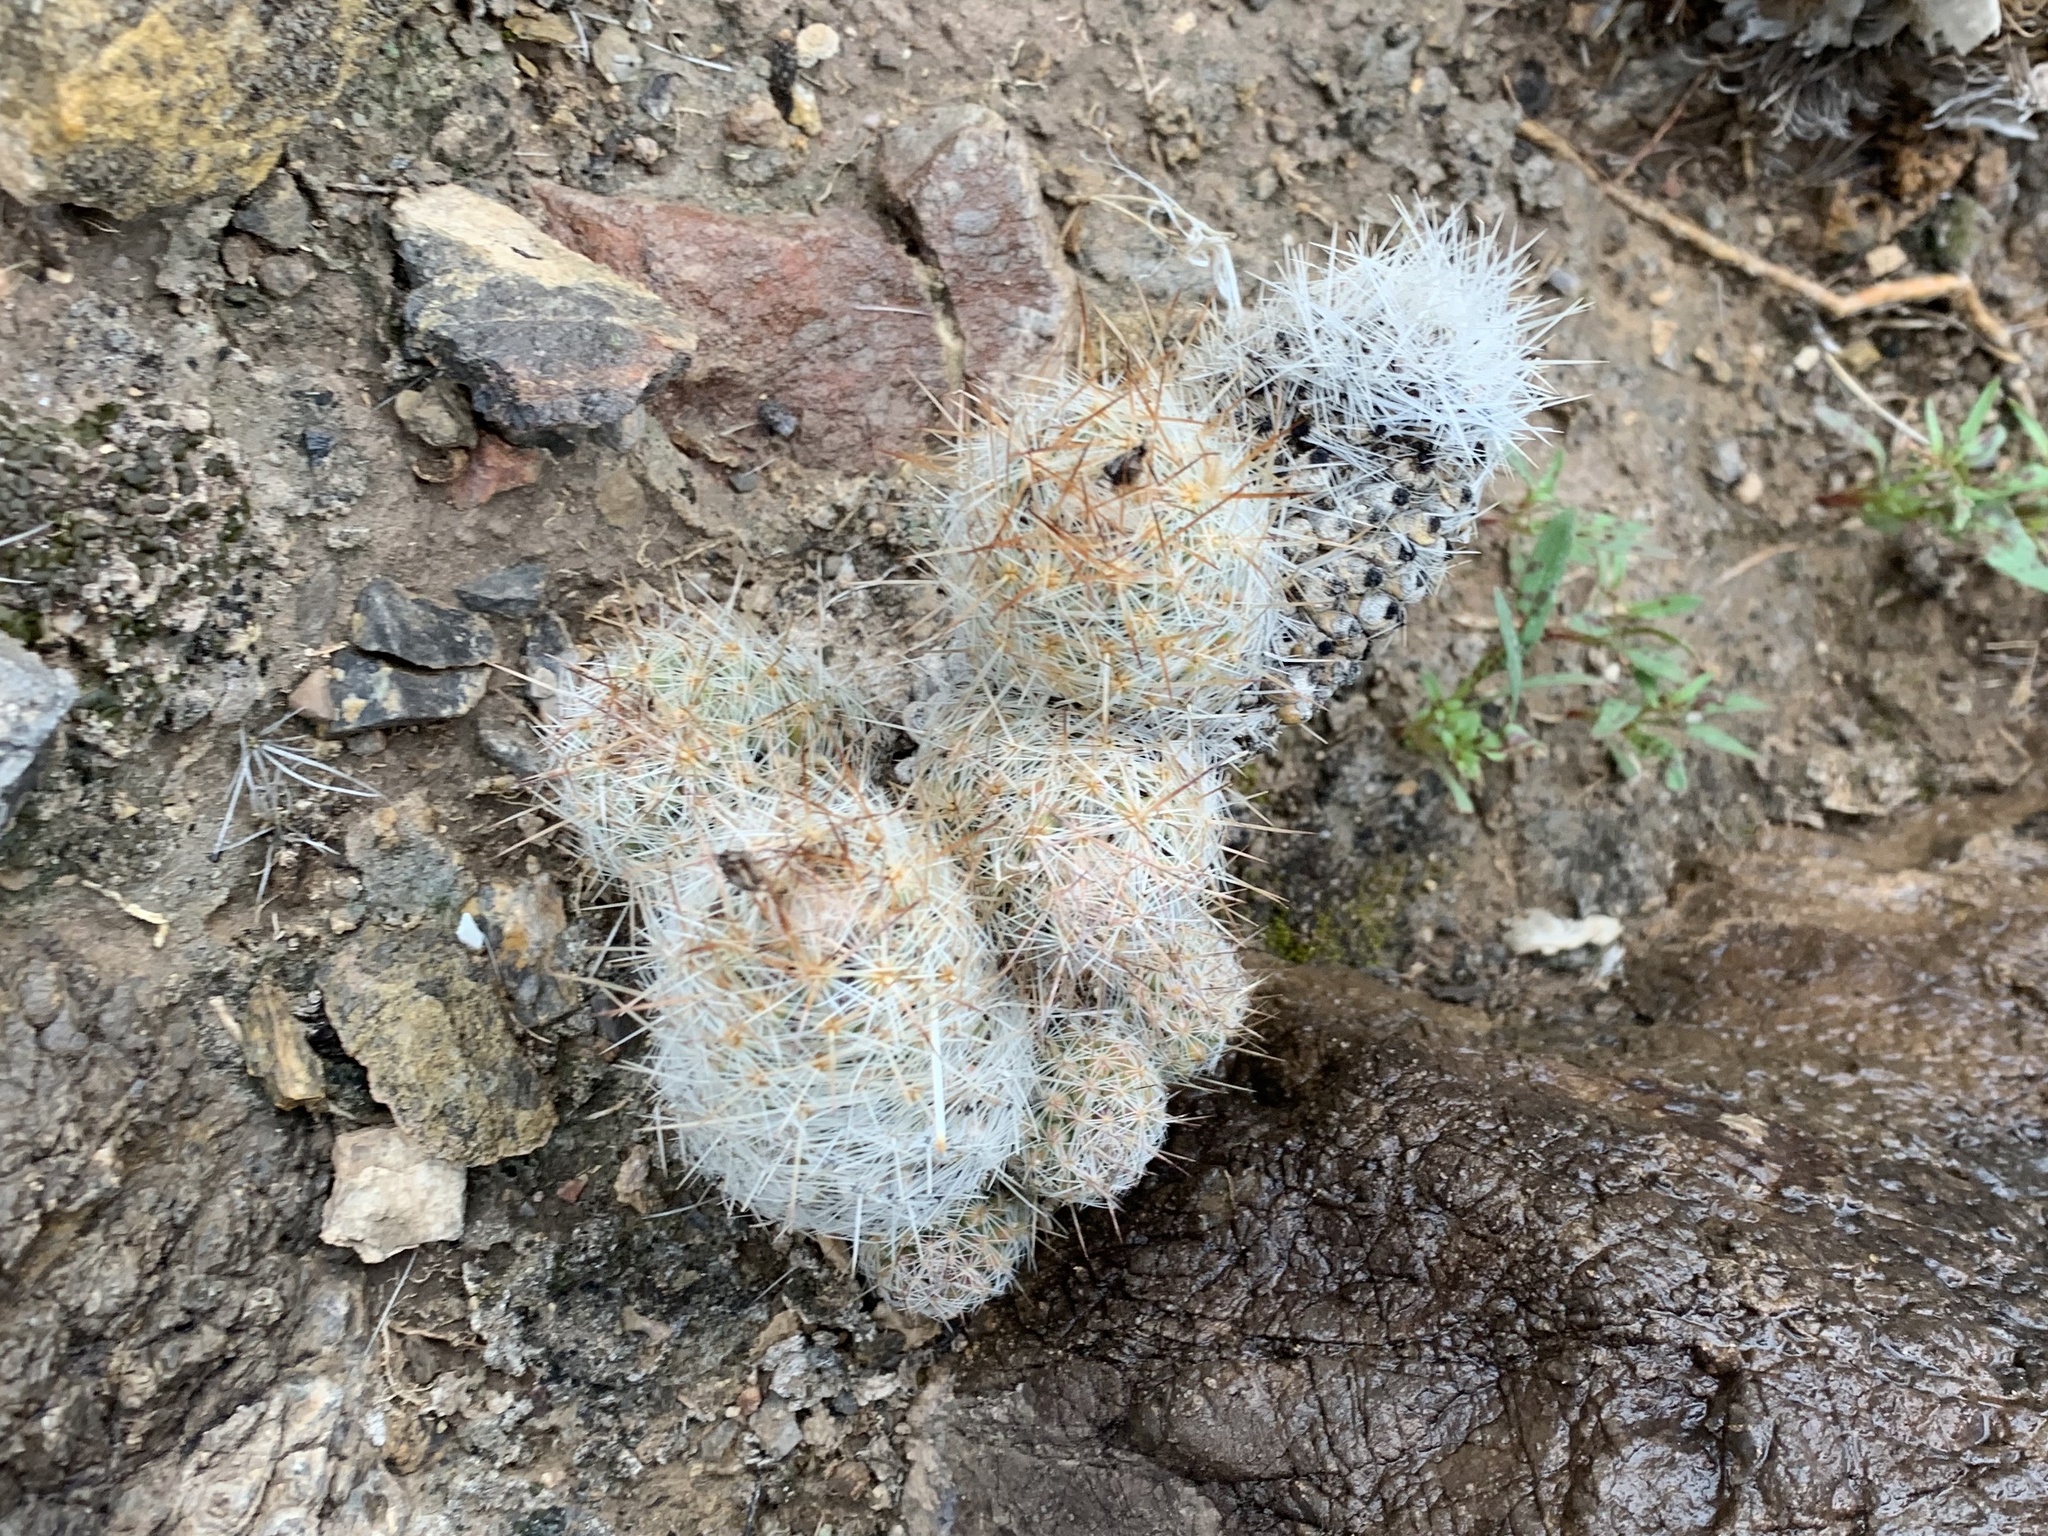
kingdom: Plantae
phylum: Tracheophyta
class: Magnoliopsida
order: Caryophyllales
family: Cactaceae
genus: Pelecyphora
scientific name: Pelecyphora tuberculosa
